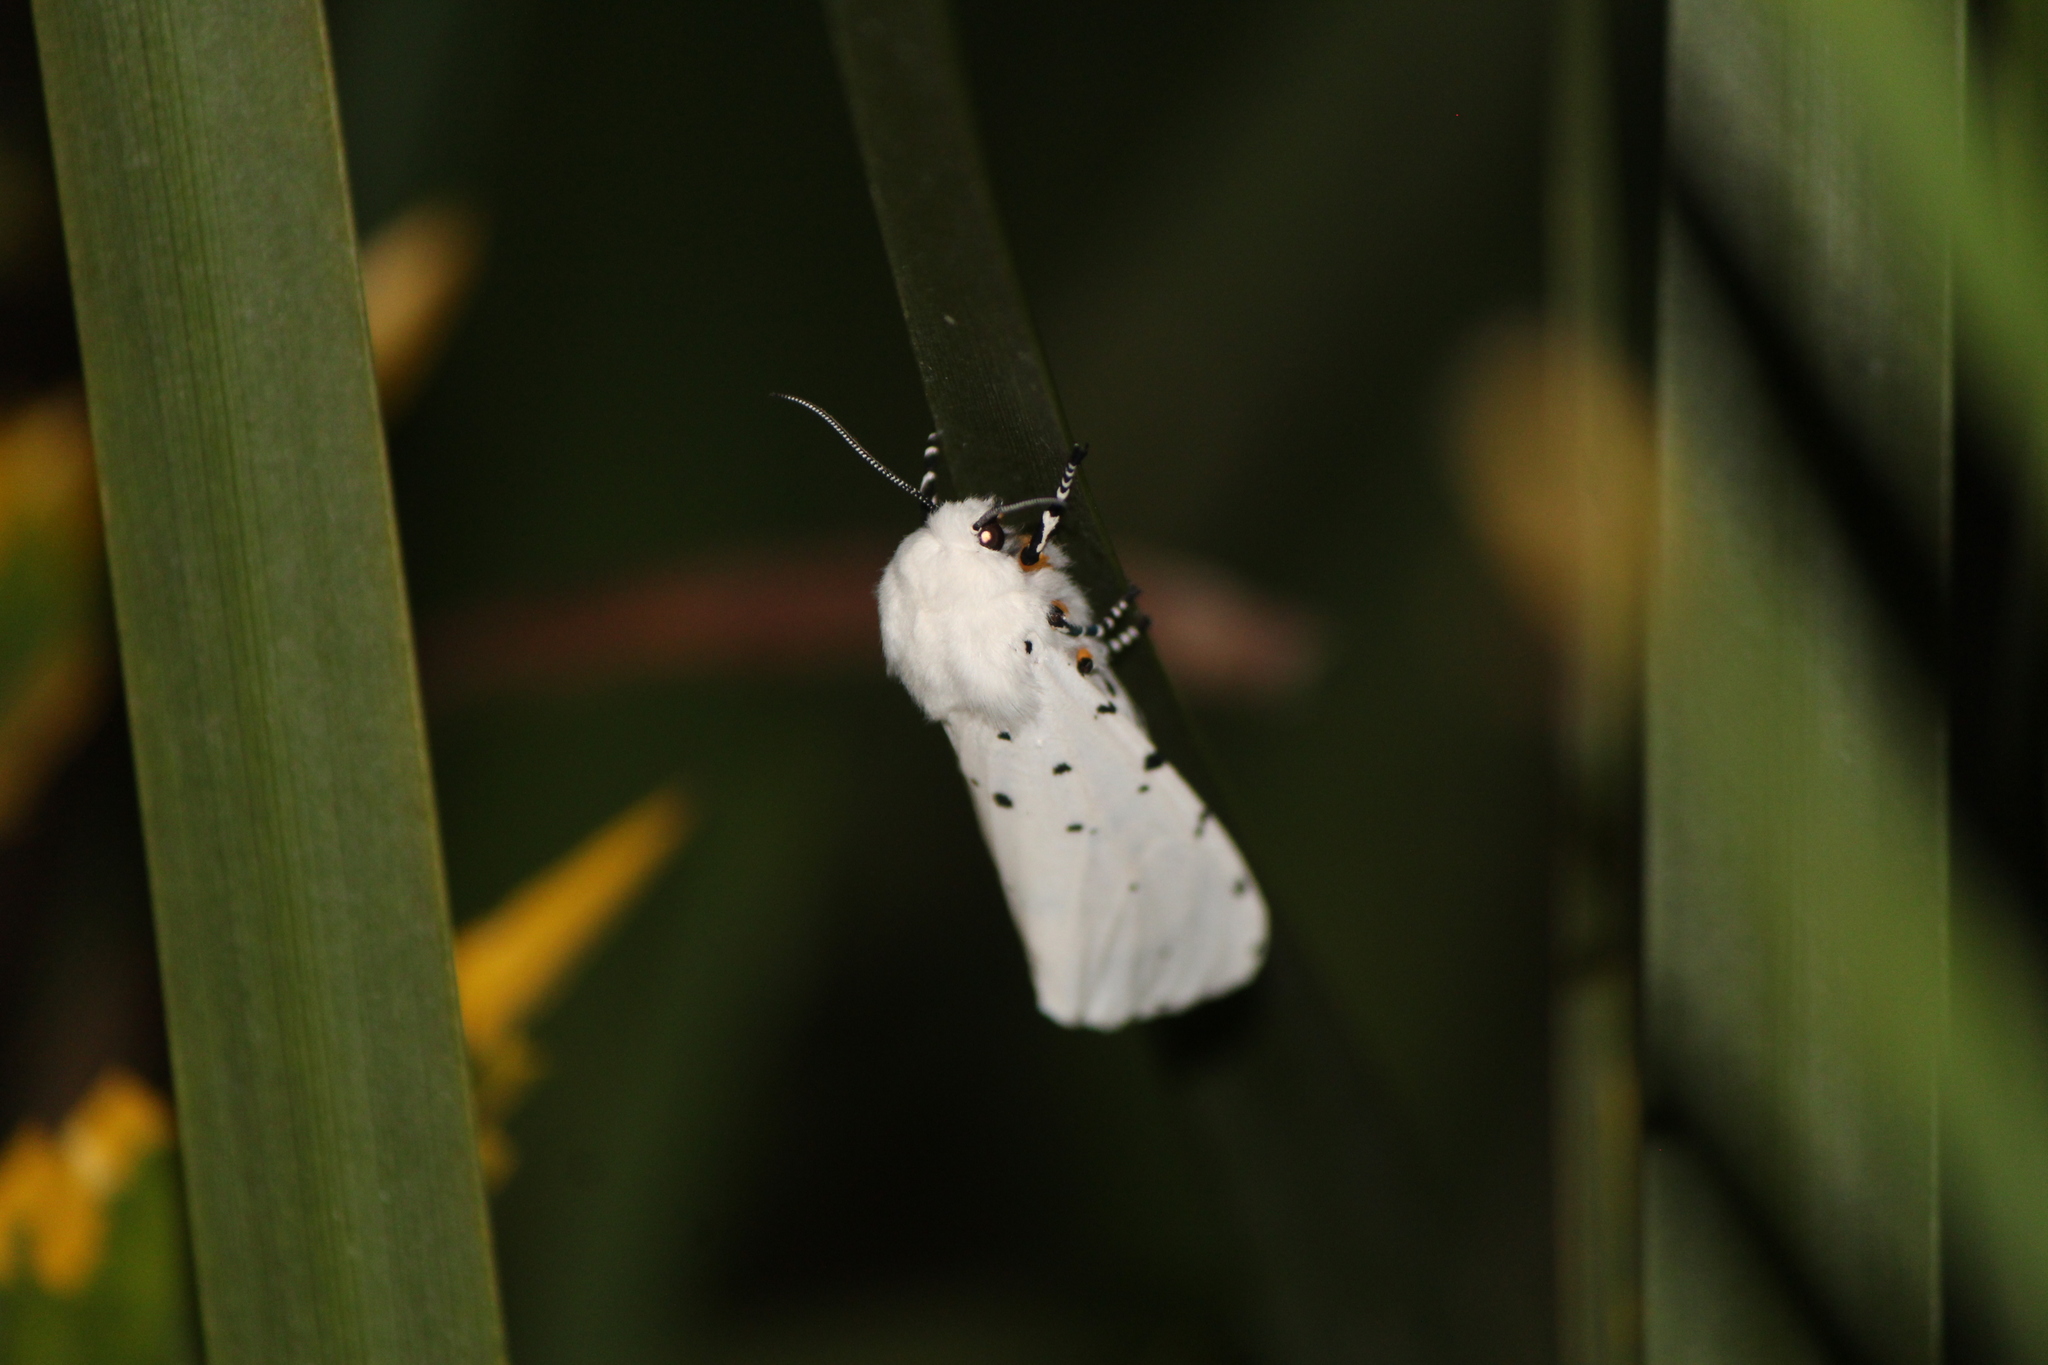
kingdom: Animalia
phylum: Arthropoda
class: Insecta
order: Lepidoptera
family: Erebidae
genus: Estigmene
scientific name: Estigmene acrea
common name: Salt marsh moth
